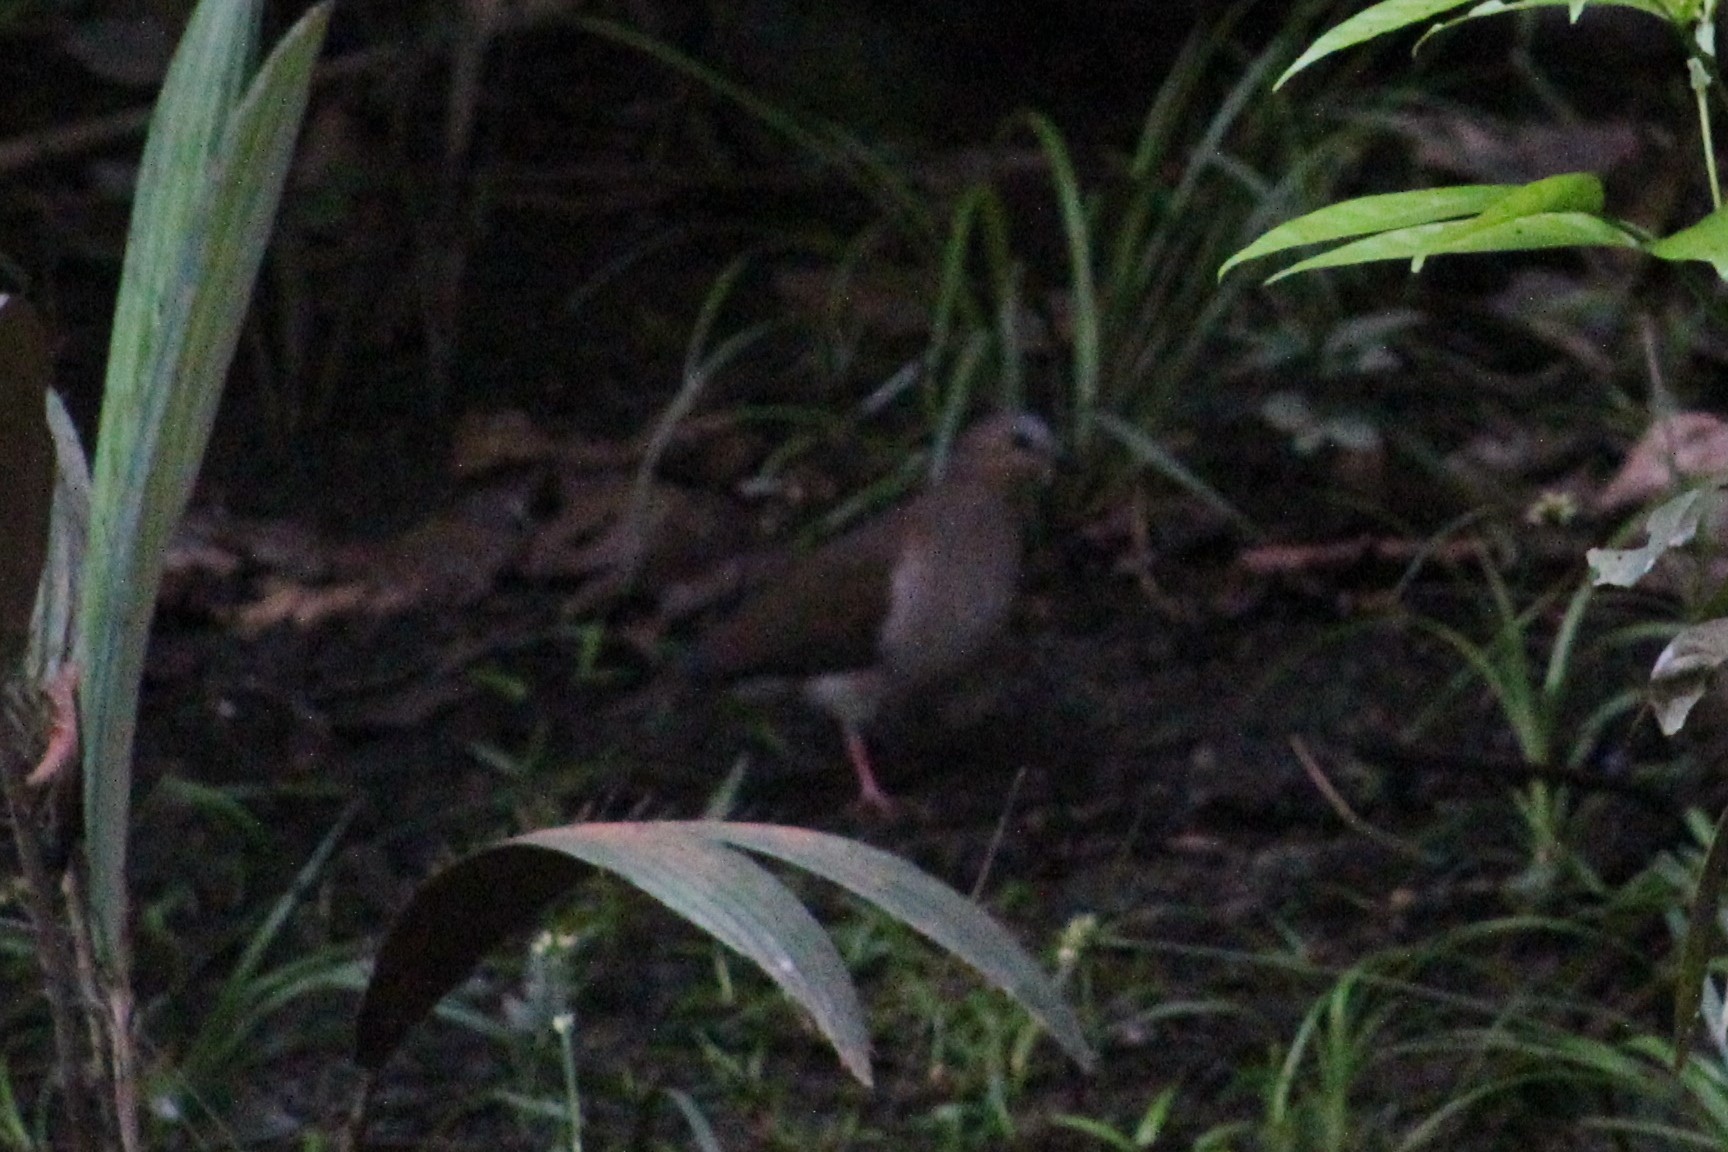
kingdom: Animalia
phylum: Chordata
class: Aves
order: Columbiformes
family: Columbidae
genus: Leptotila
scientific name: Leptotila rufaxilla
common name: Grey-fronted dove
